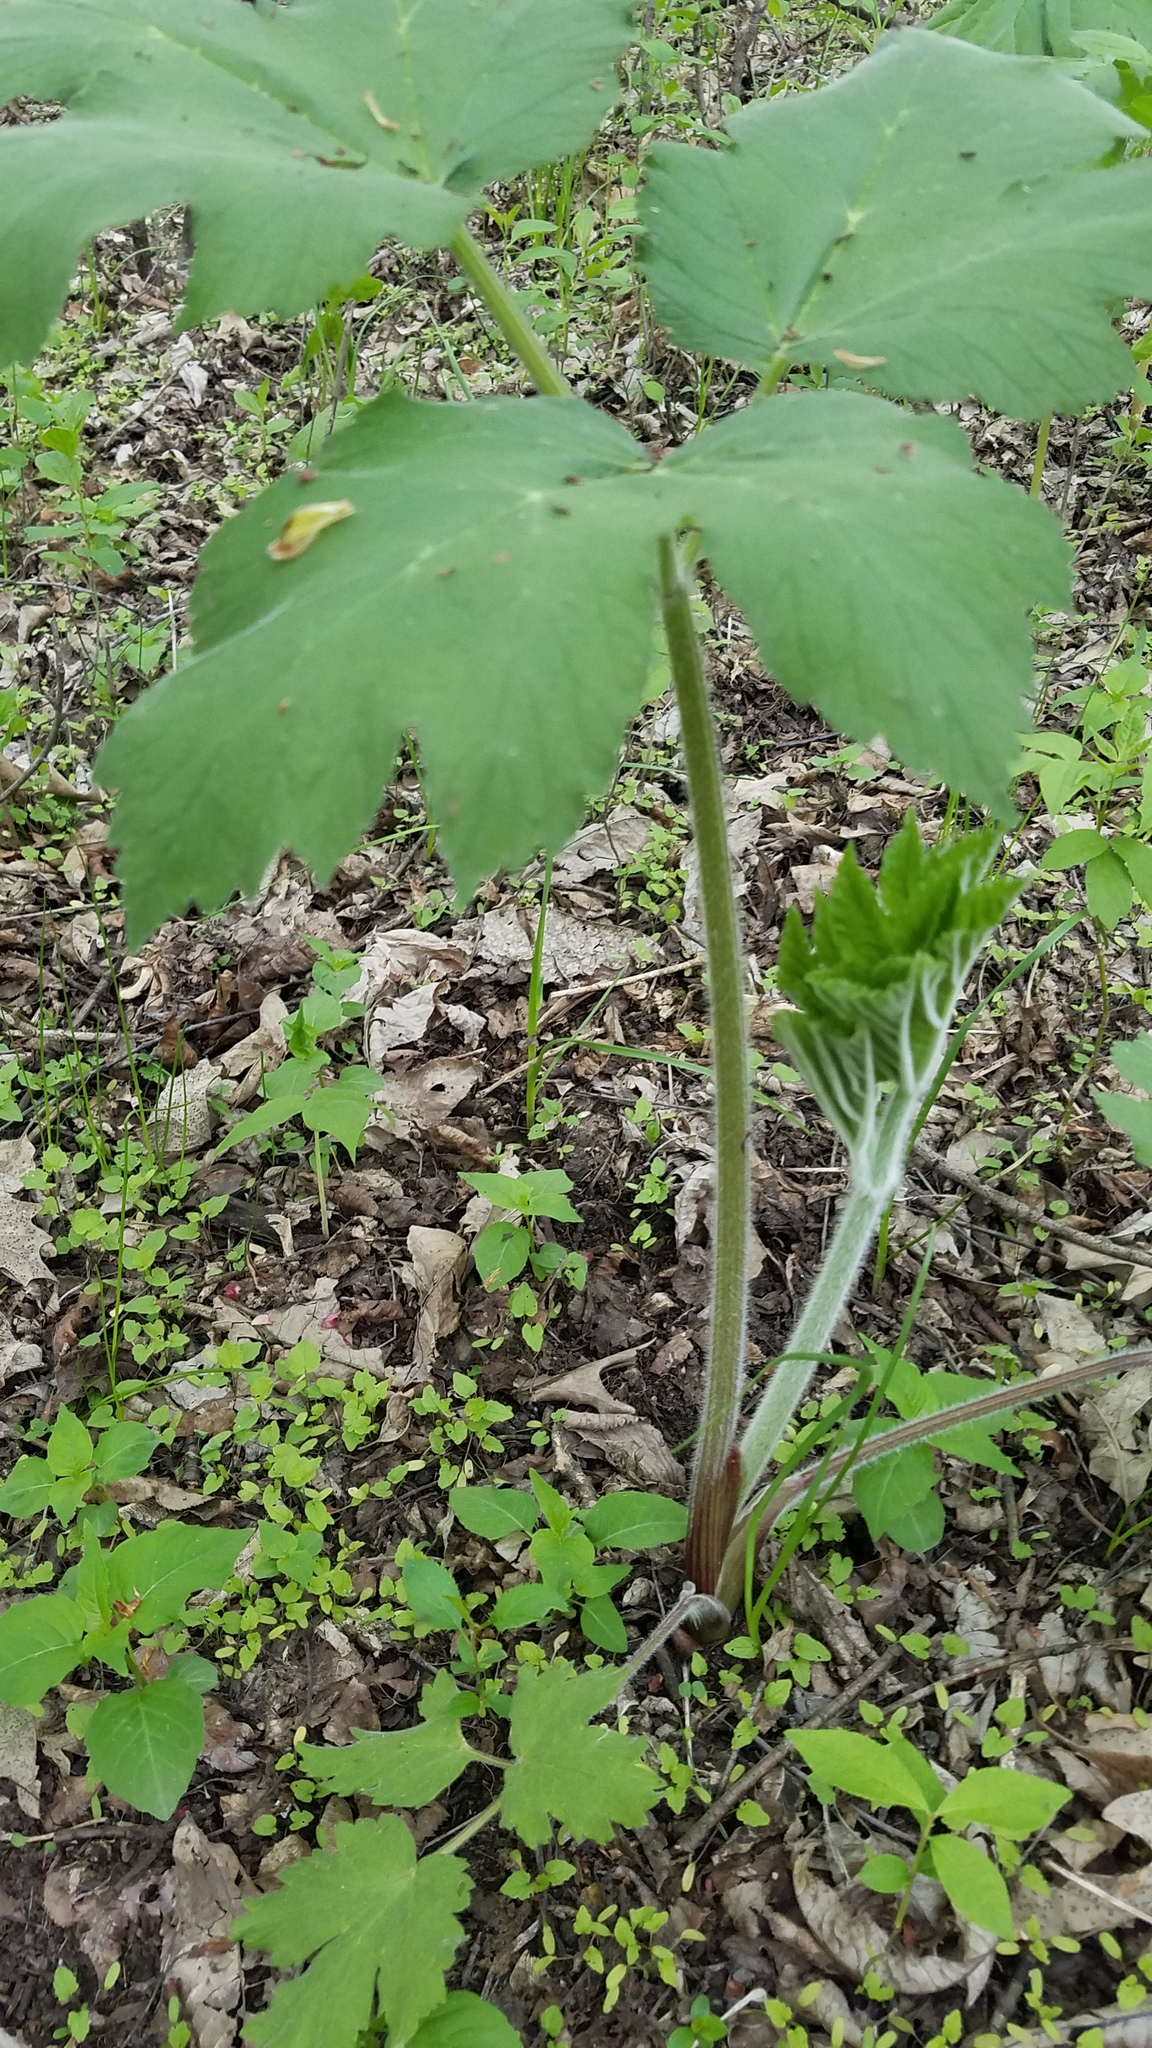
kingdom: Plantae
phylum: Tracheophyta
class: Magnoliopsida
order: Apiales
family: Apiaceae
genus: Heracleum
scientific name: Heracleum maximum
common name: American cow parsnip
